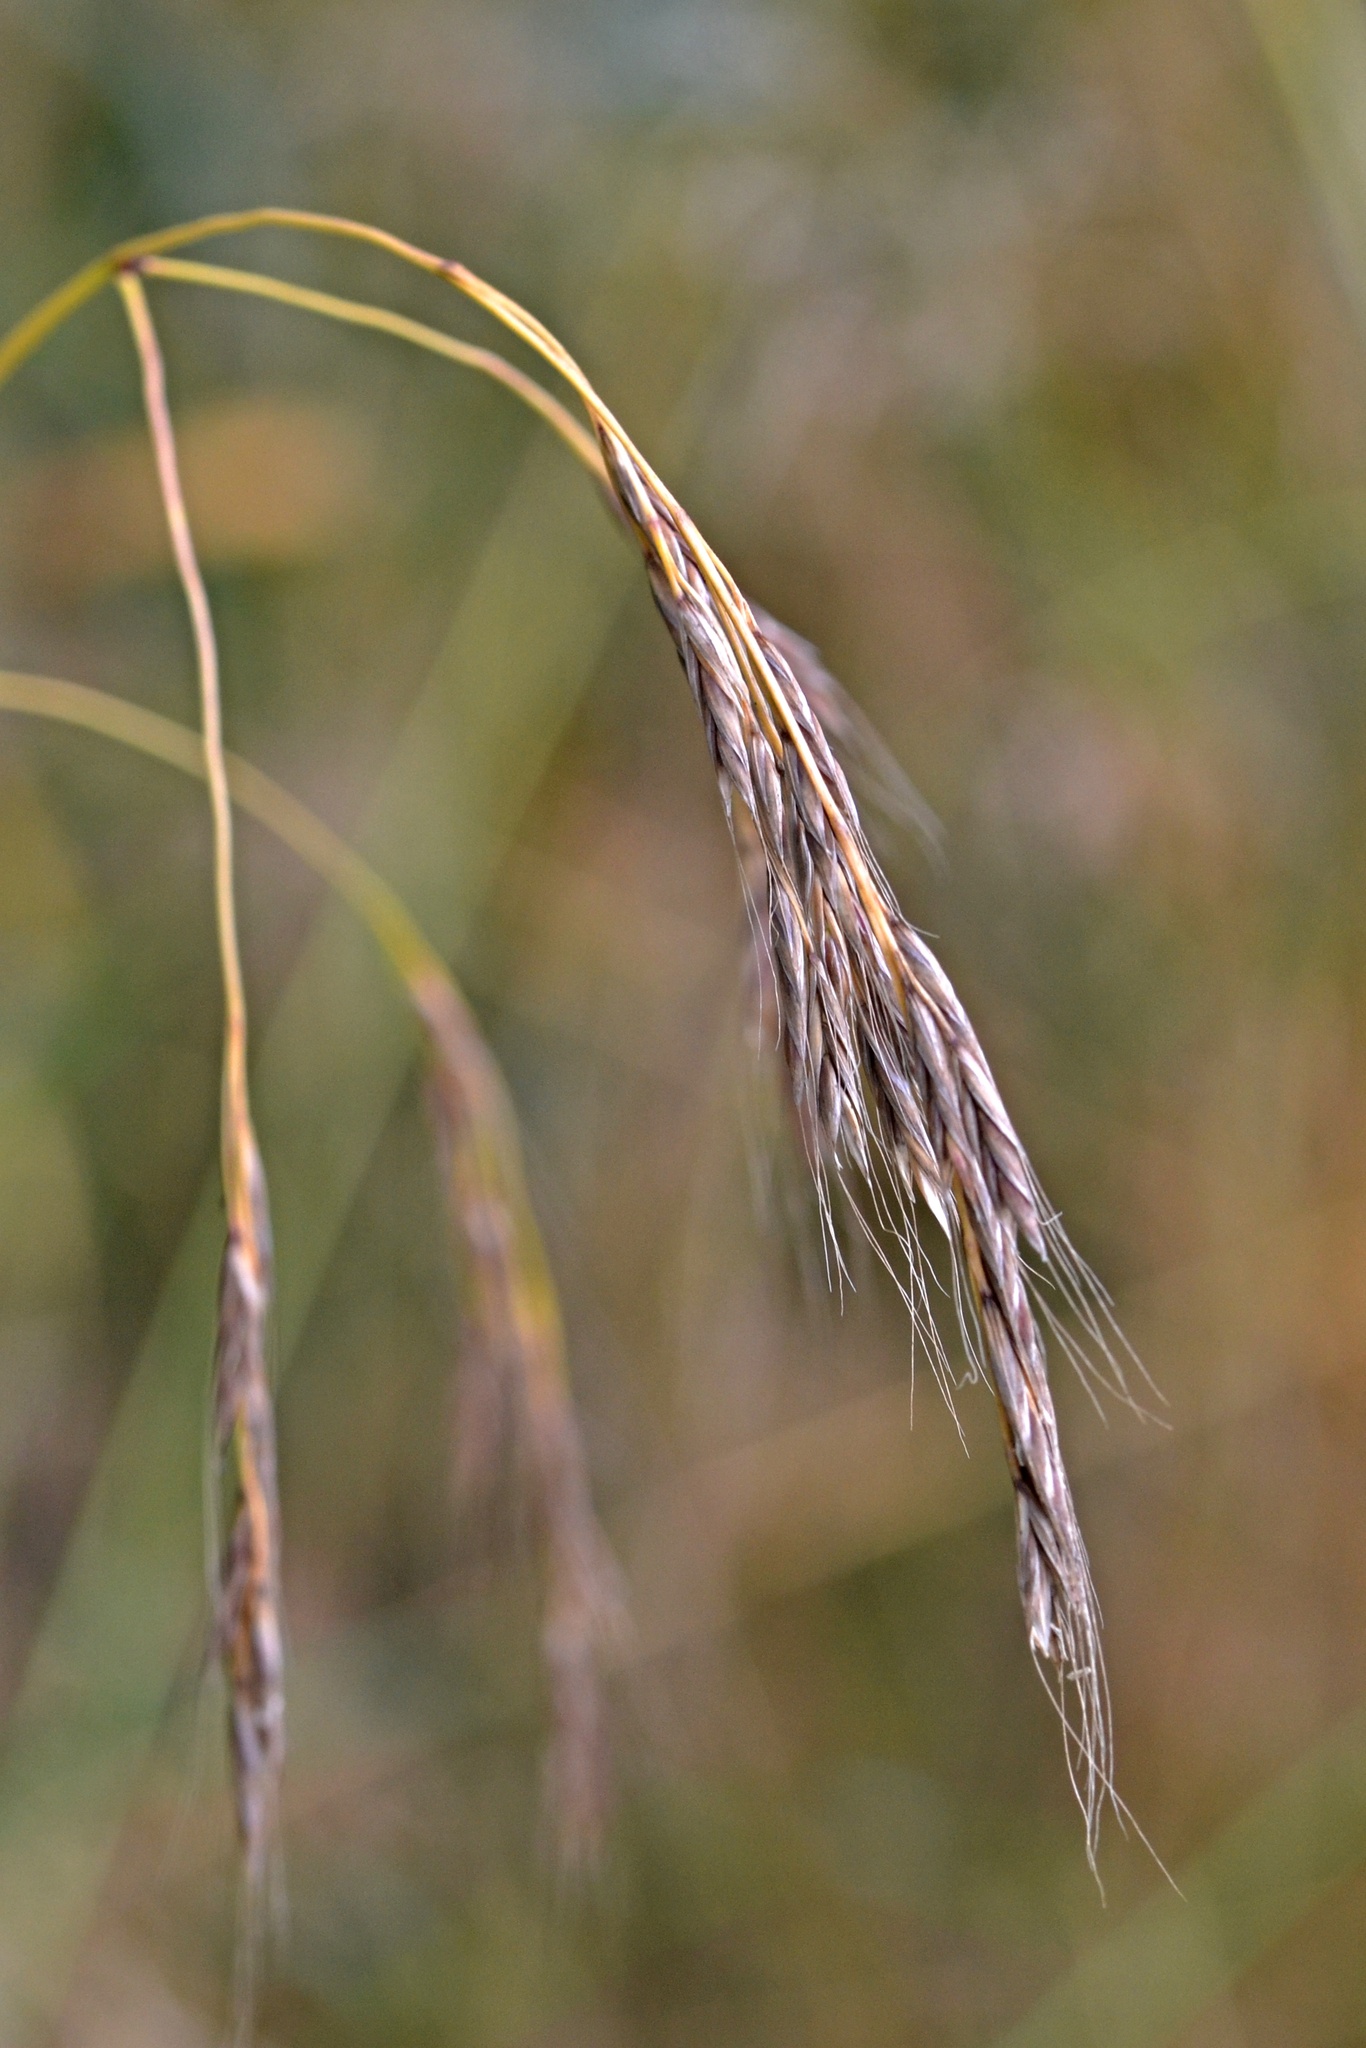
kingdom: Plantae
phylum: Tracheophyta
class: Liliopsida
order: Poales
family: Poaceae
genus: Lolium
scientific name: Lolium giganteum
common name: Giant fescue
